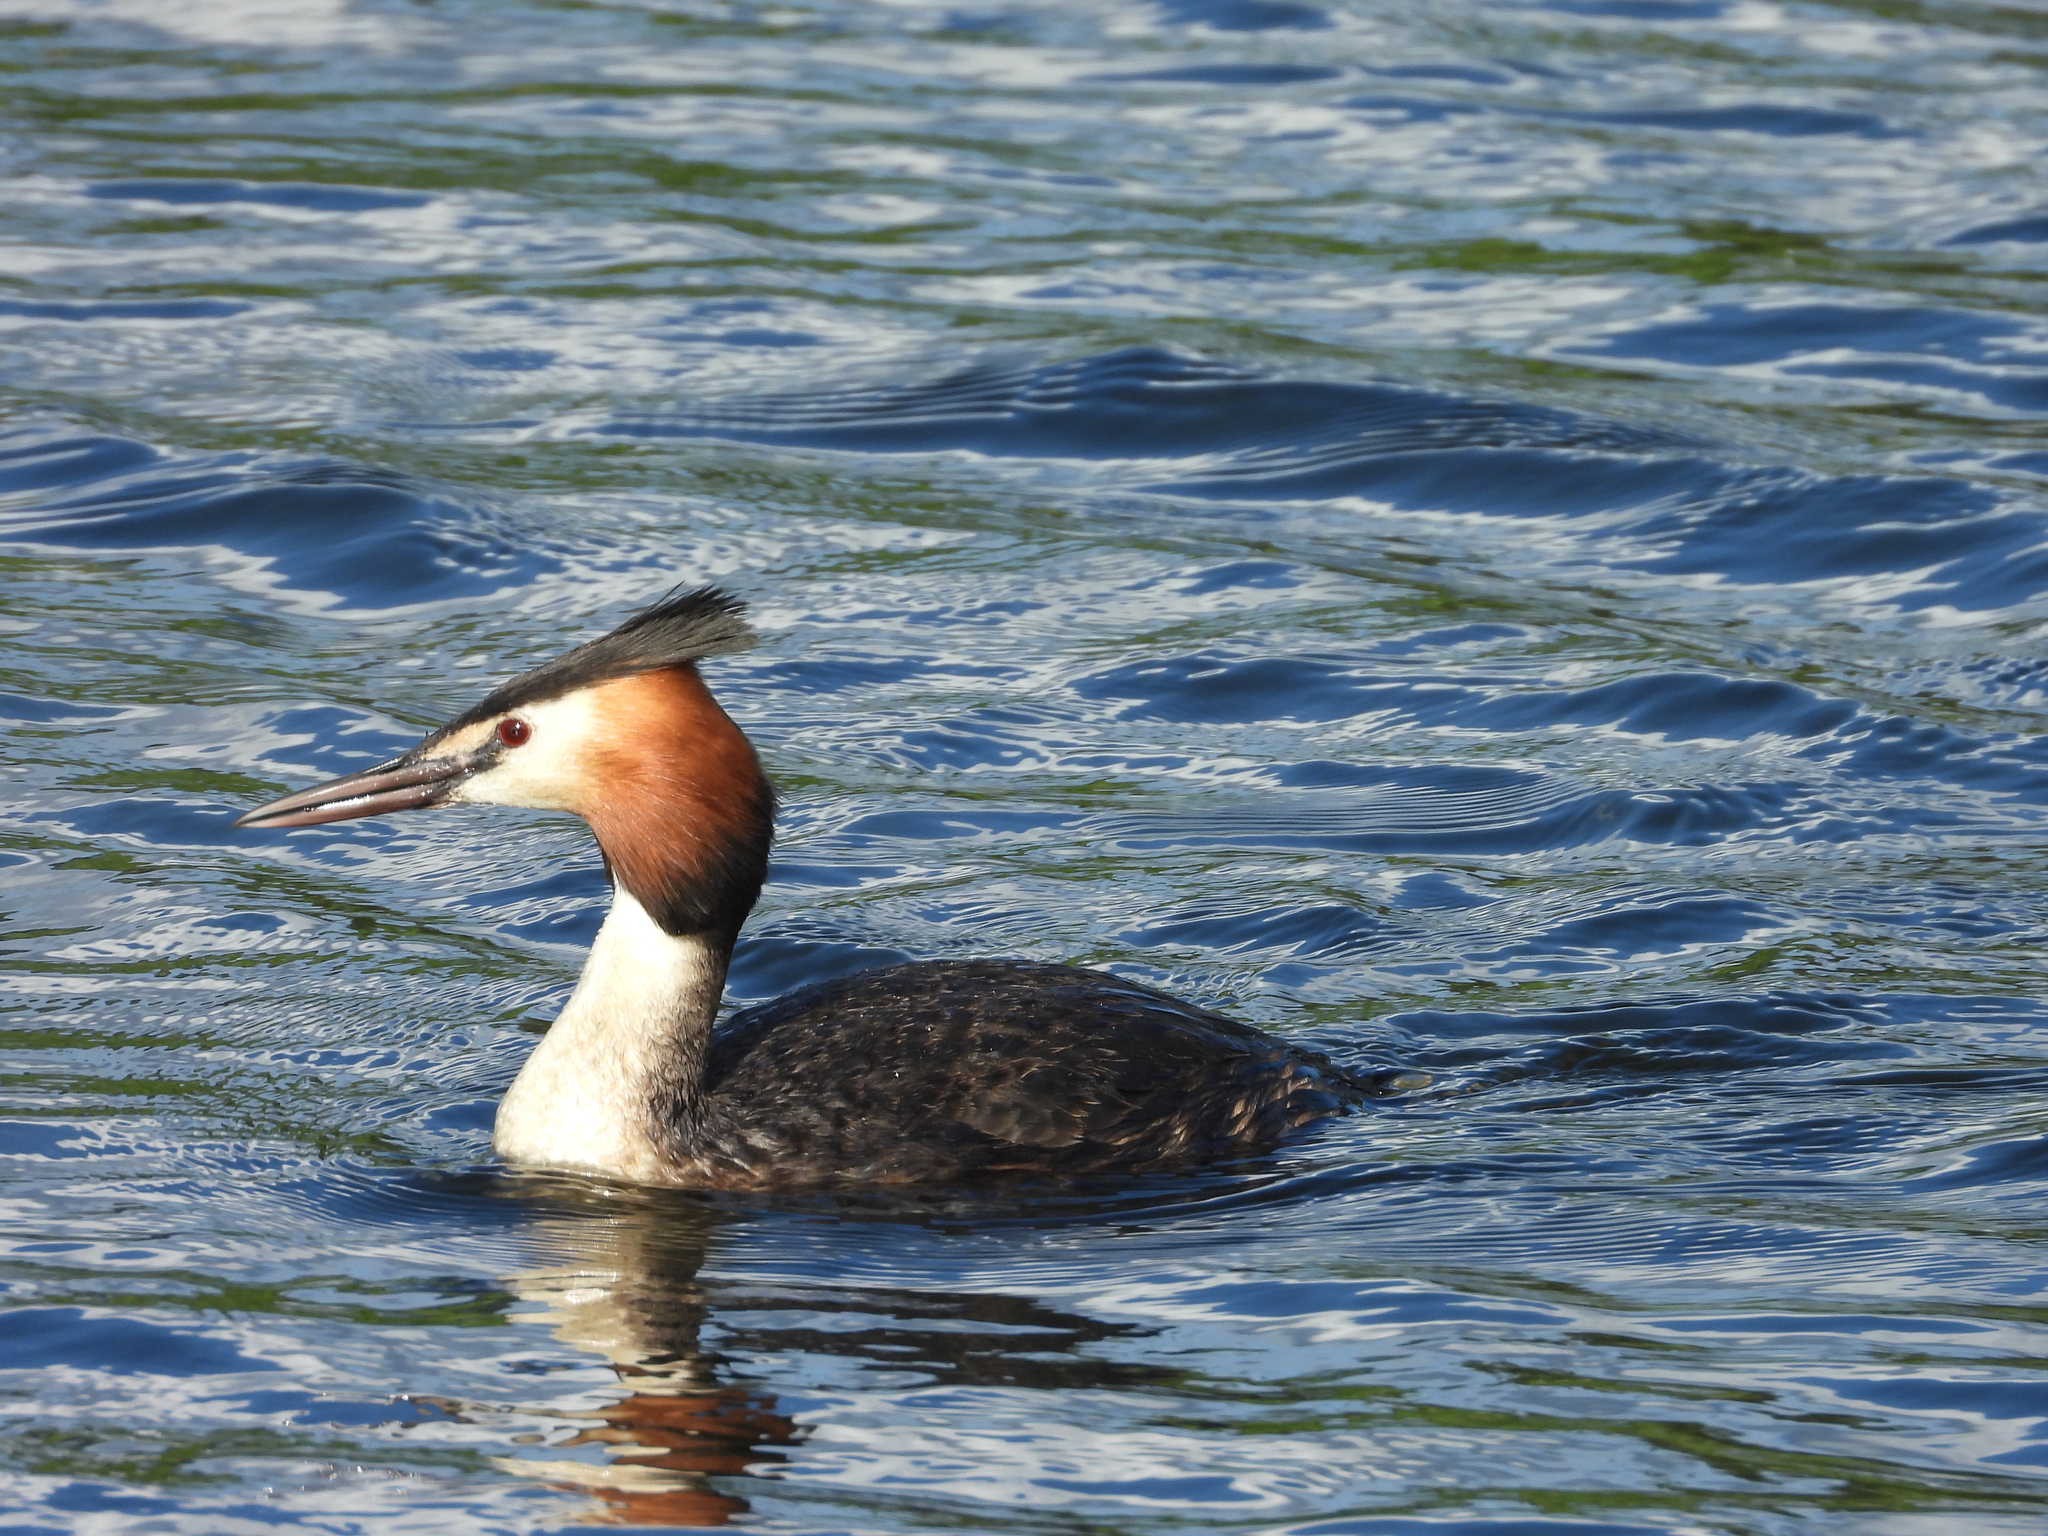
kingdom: Animalia
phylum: Chordata
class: Aves
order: Podicipediformes
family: Podicipedidae
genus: Podiceps
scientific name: Podiceps cristatus
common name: Great crested grebe
